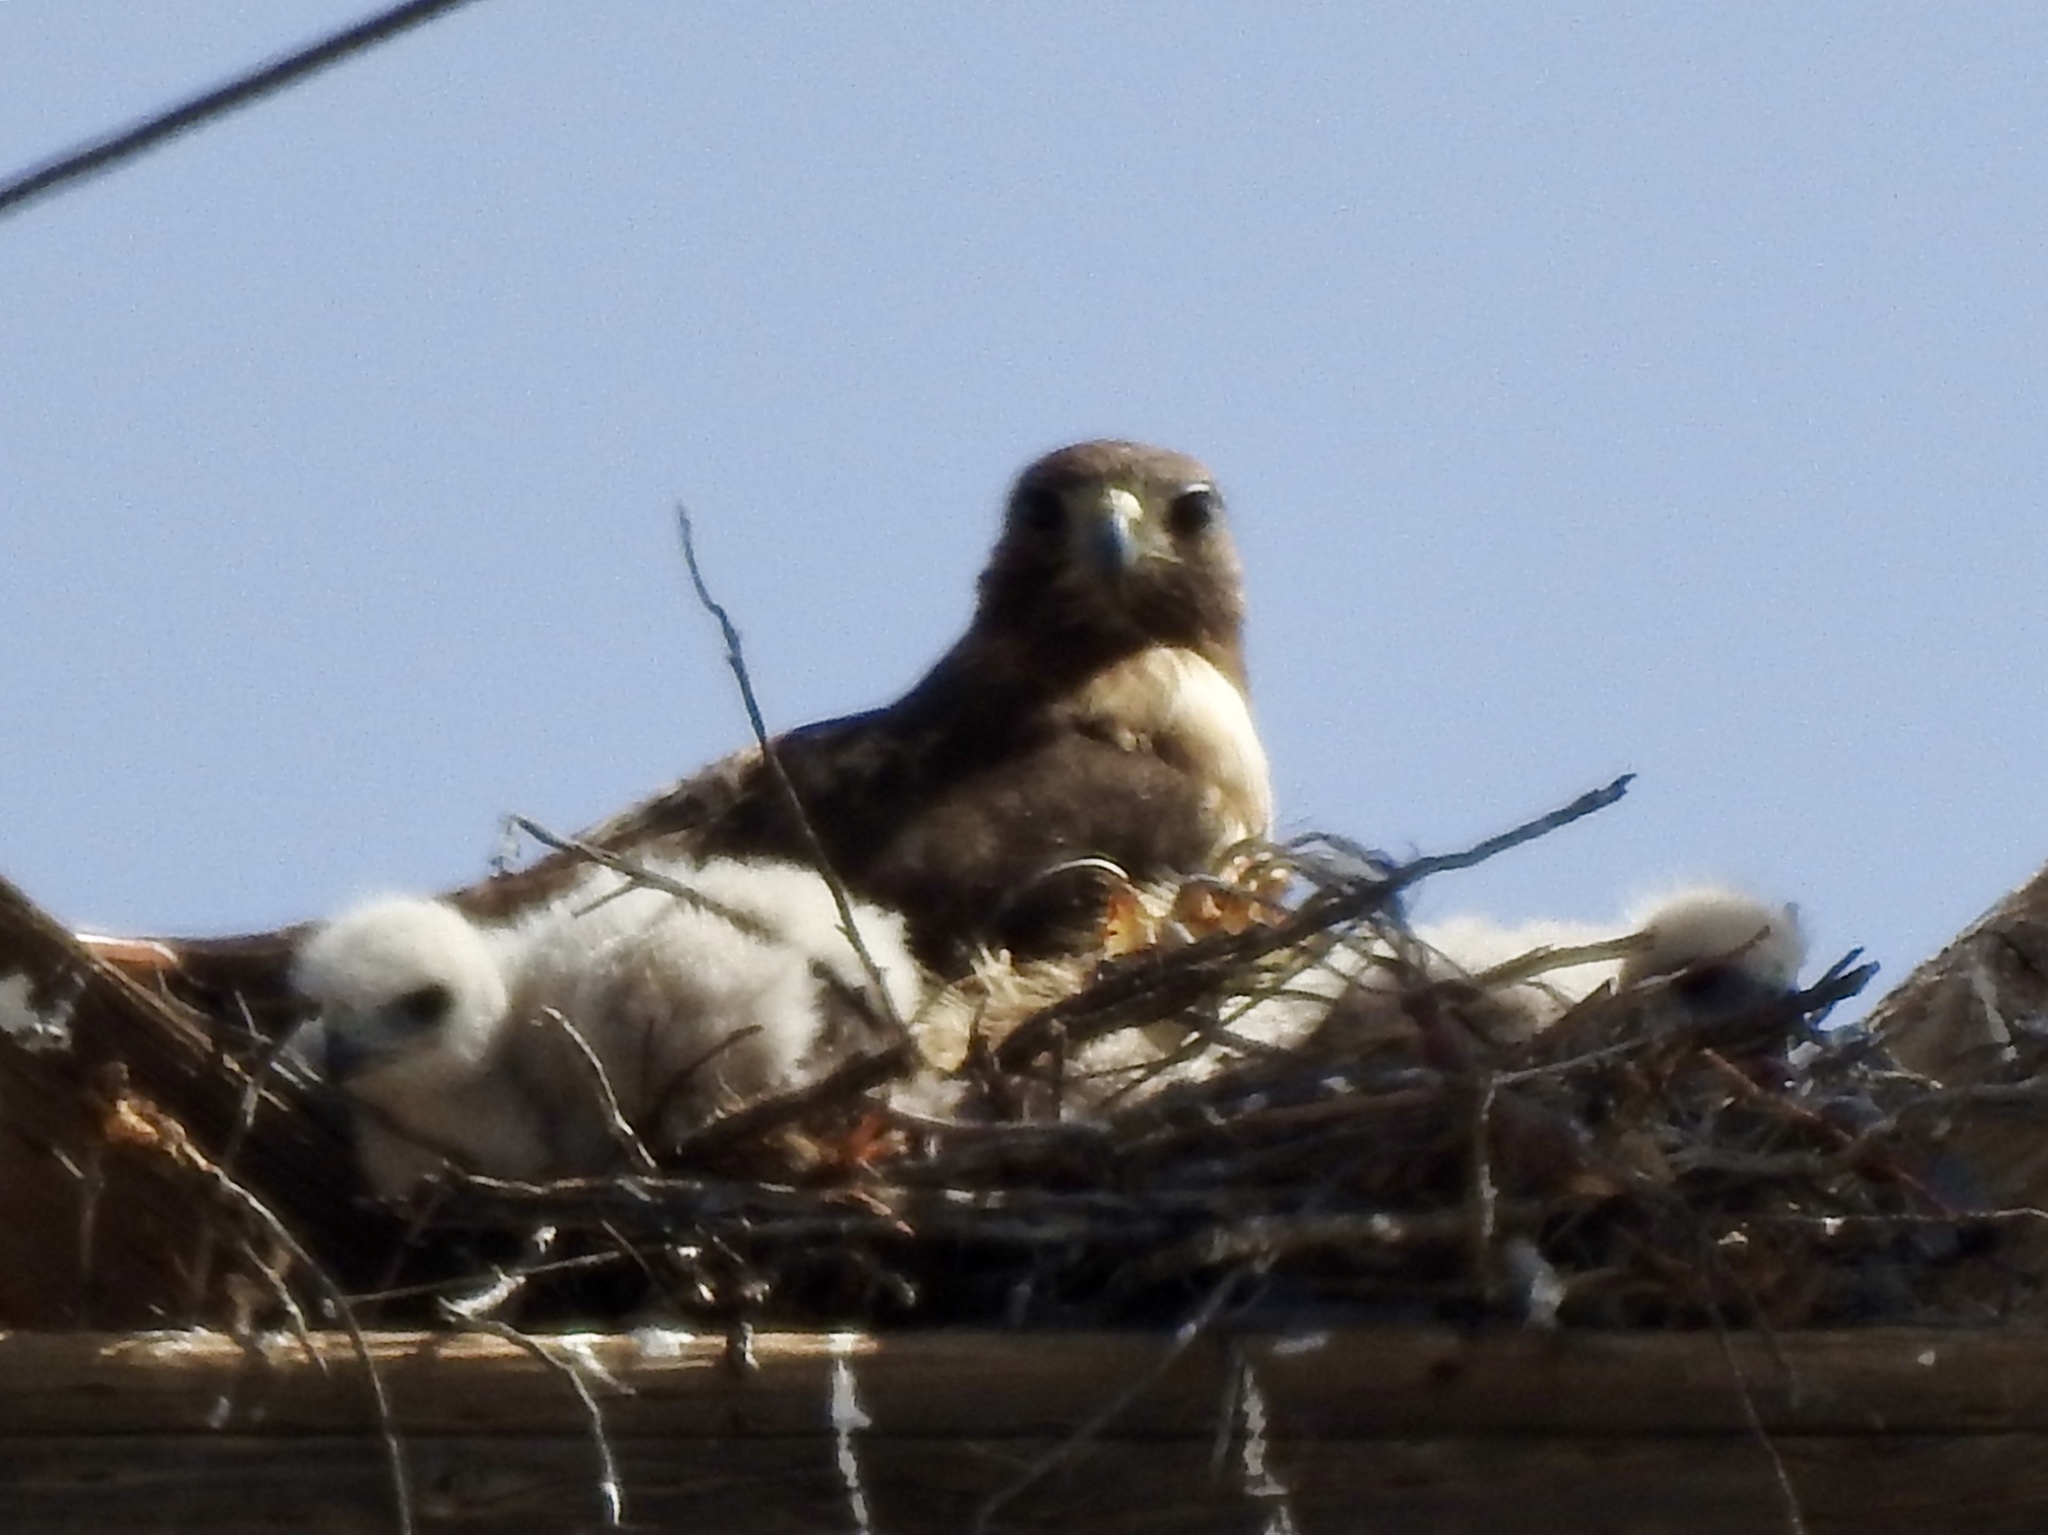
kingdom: Animalia
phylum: Chordata
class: Aves
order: Accipitriformes
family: Accipitridae
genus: Buteo
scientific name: Buteo jamaicensis
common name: Red-tailed hawk
